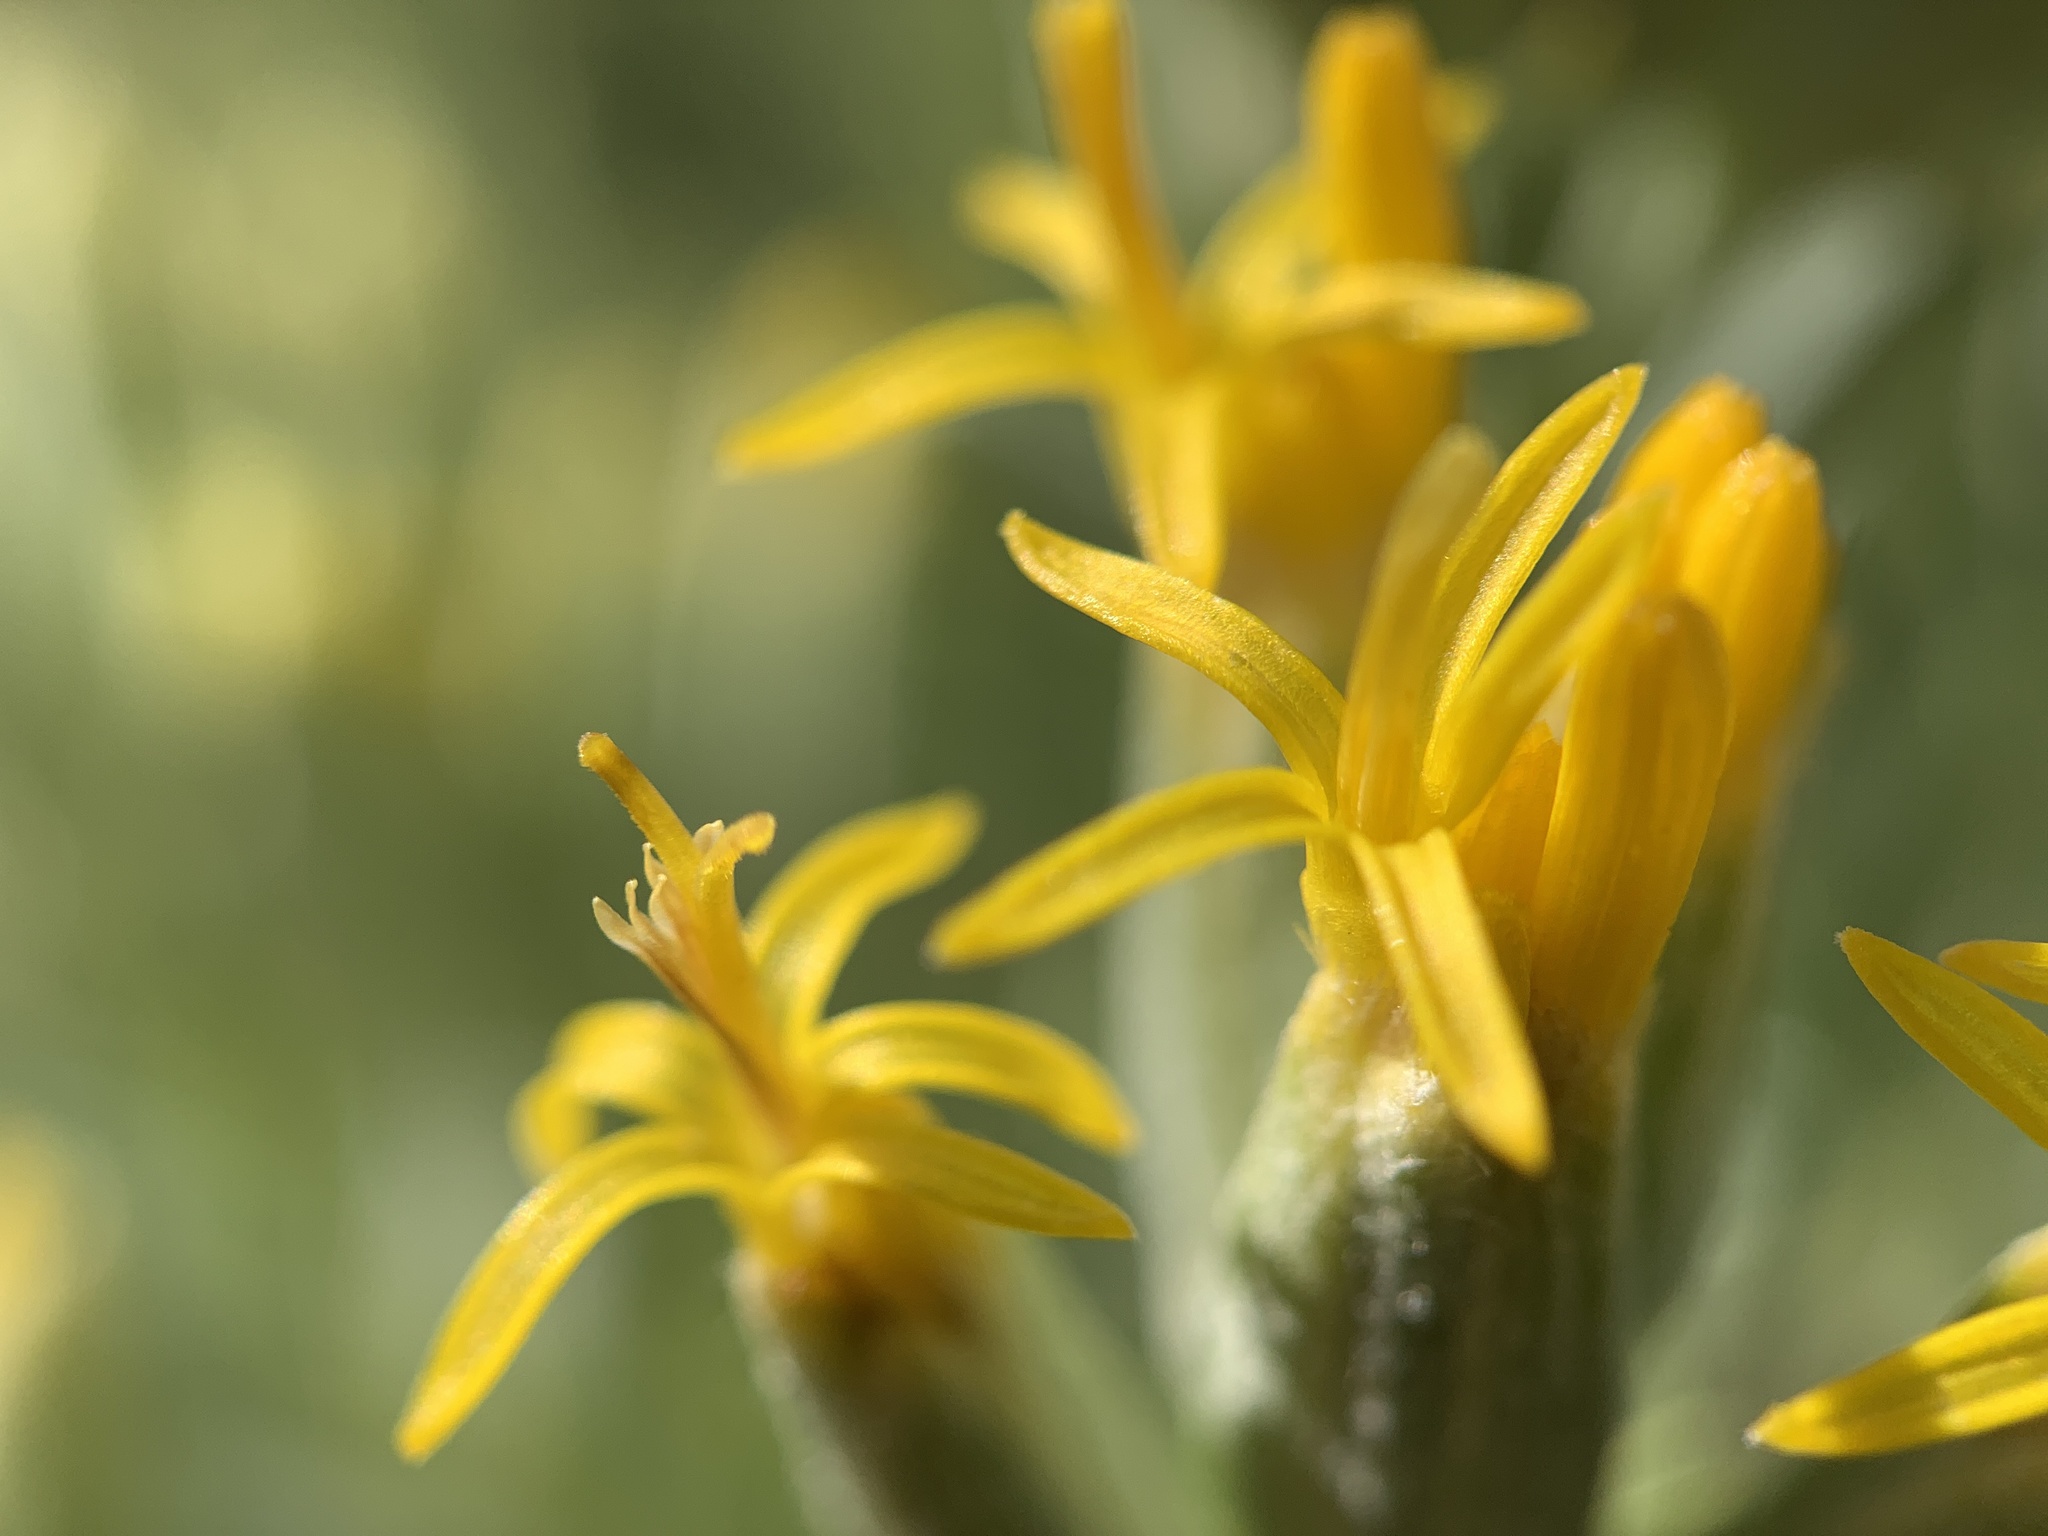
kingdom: Plantae
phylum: Tracheophyta
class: Magnoliopsida
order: Asterales
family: Asteraceae
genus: Tetradymia
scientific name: Tetradymia canescens
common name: Spineless horsebrush
